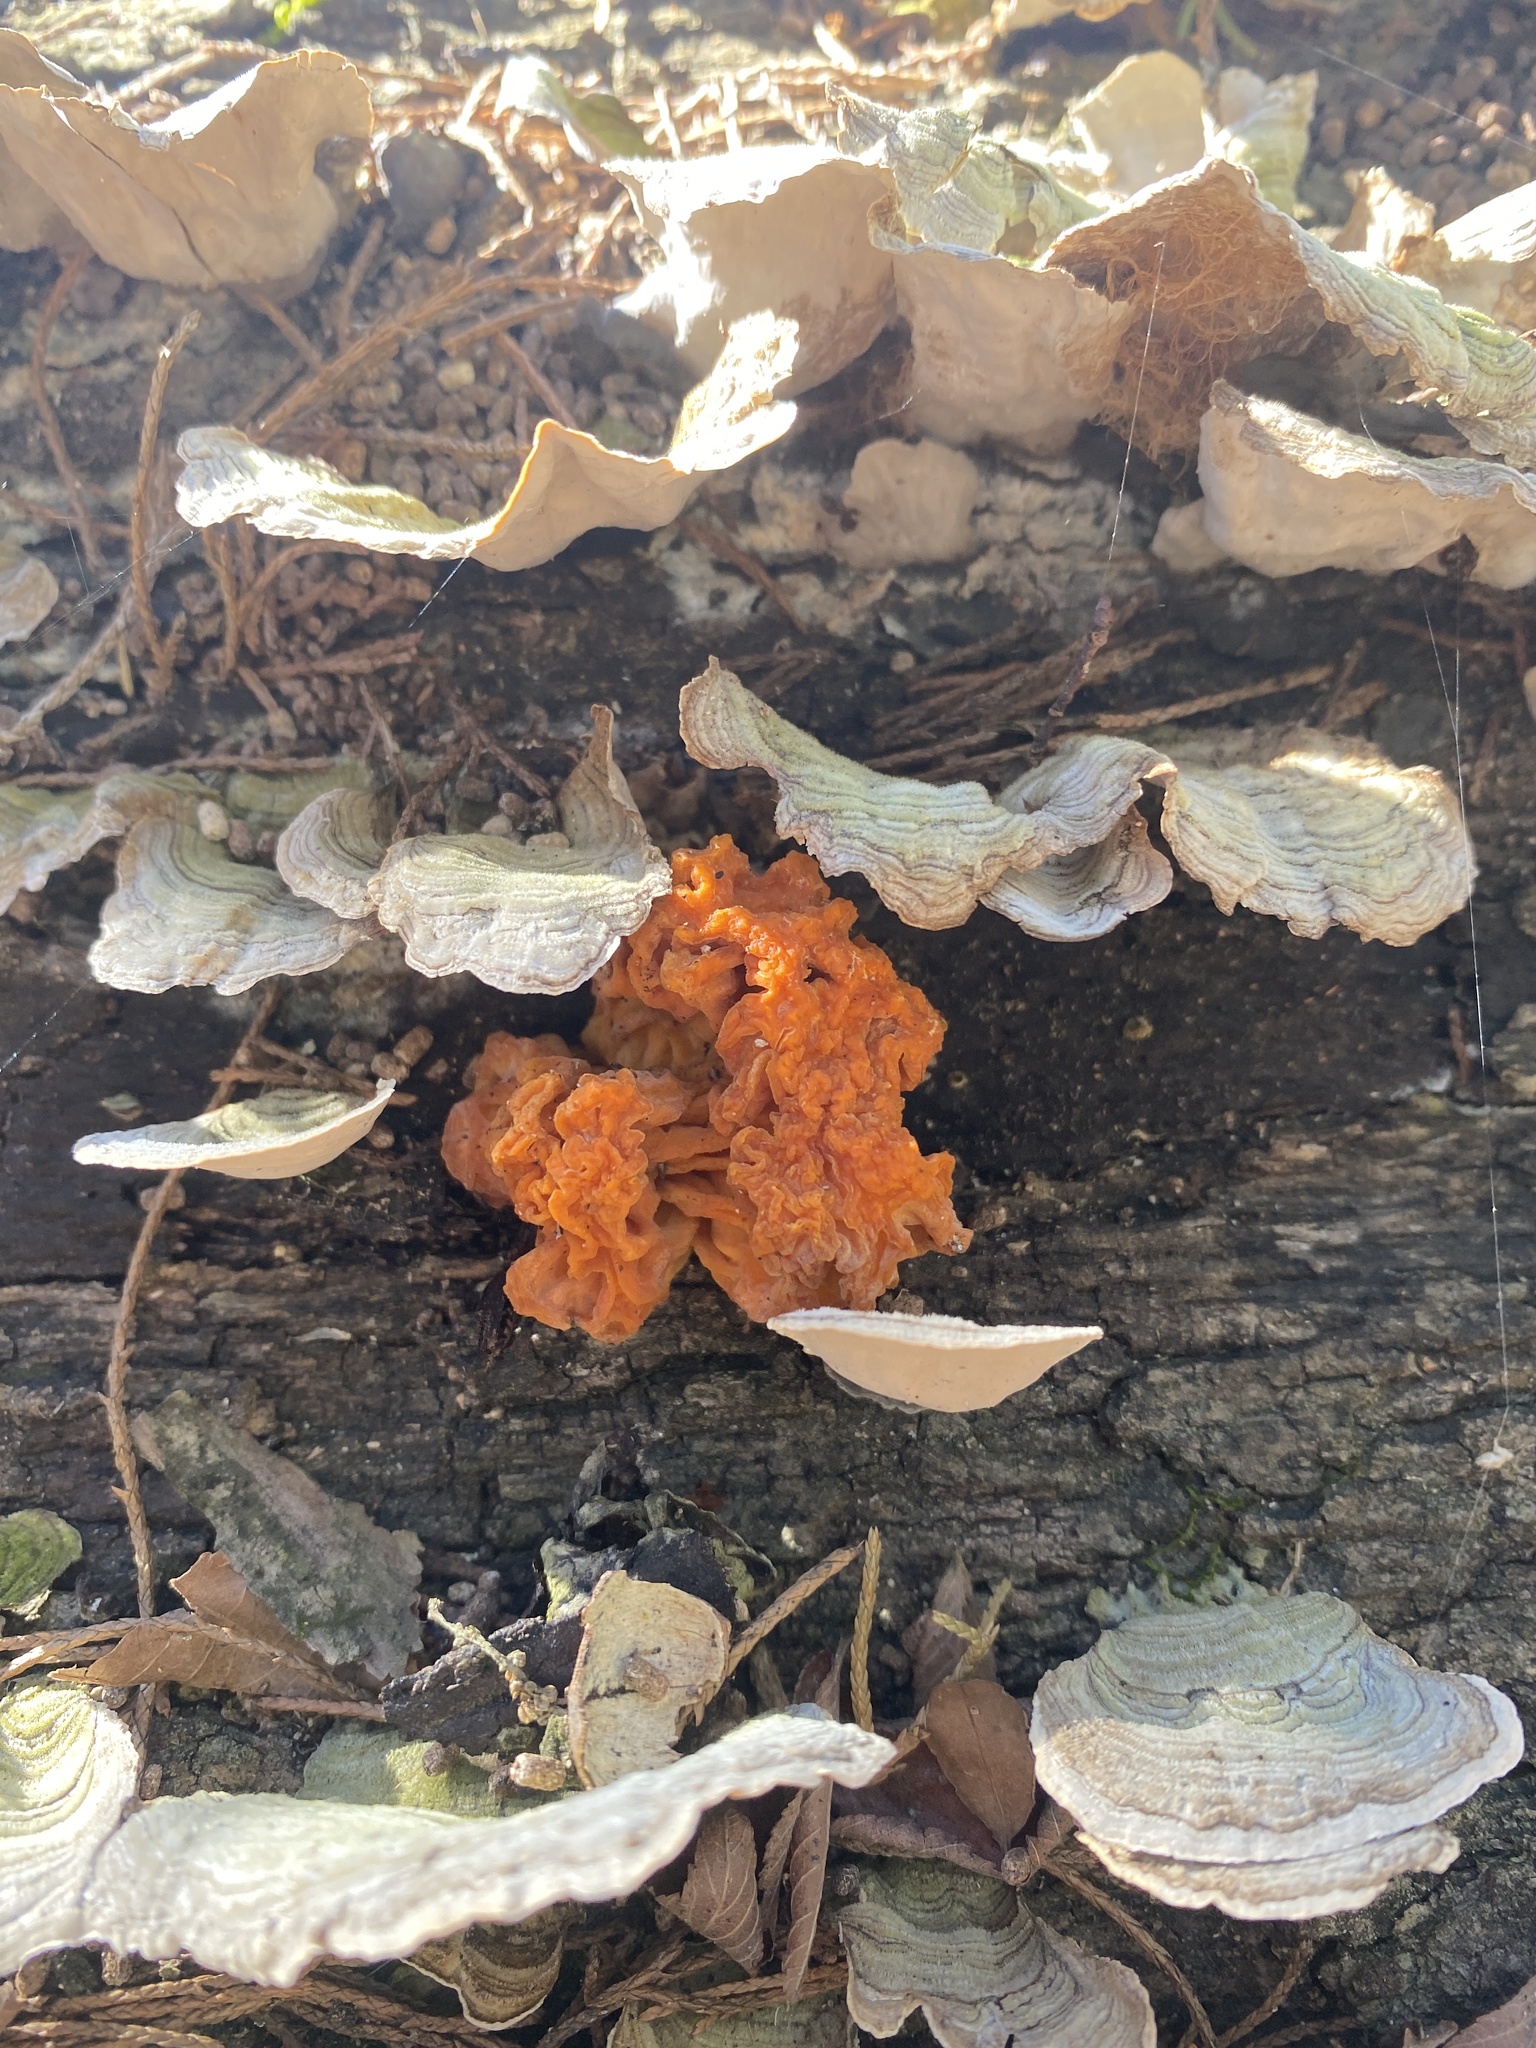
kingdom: Fungi
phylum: Basidiomycota
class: Tremellomycetes
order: Tremellales
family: Naemateliaceae
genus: Naematelia
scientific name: Naematelia aurantia
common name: Golden ear
